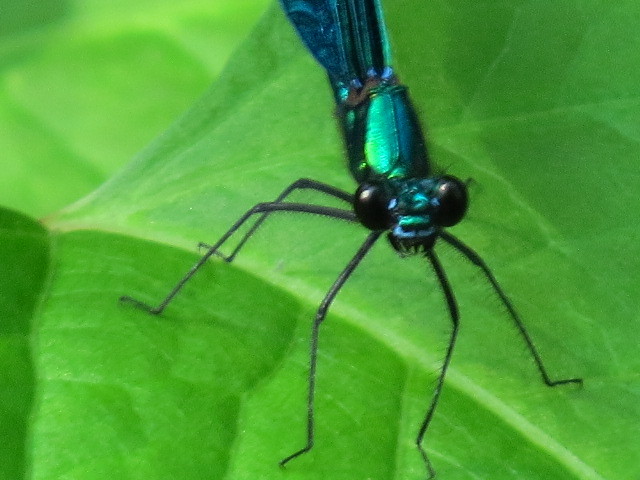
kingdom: Animalia
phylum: Arthropoda
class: Insecta
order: Odonata
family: Calopterygidae
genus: Calopteryx
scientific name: Calopteryx virgo
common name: Beautiful demoiselle
